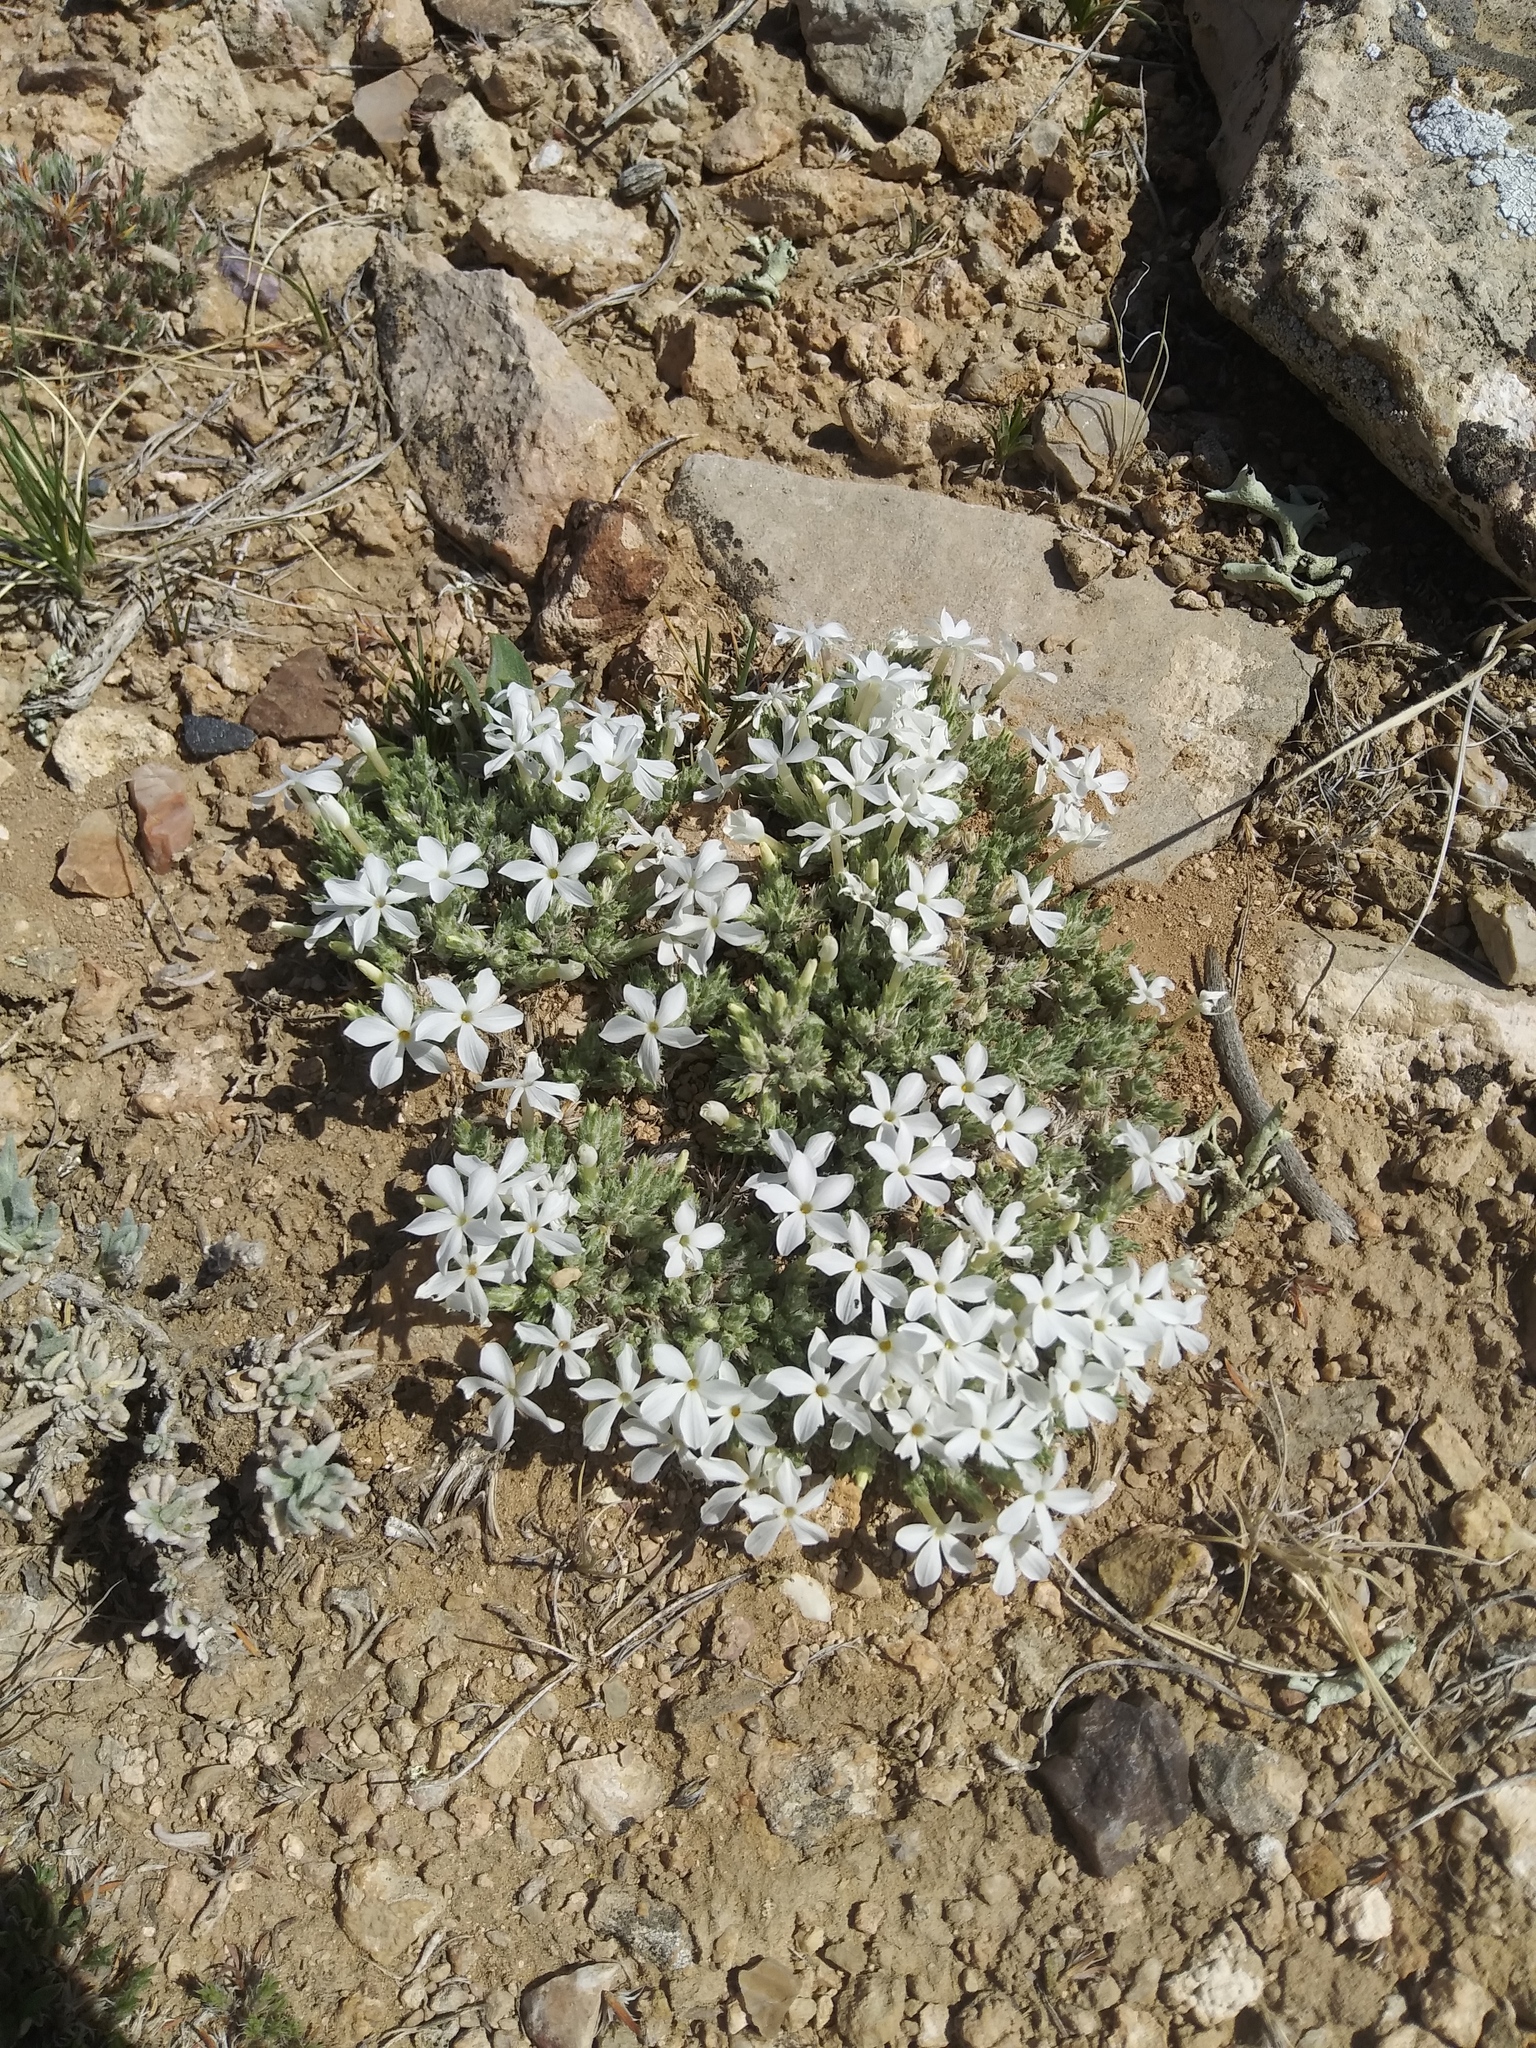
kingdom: Plantae
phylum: Tracheophyta
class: Magnoliopsida
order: Ericales
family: Polemoniaceae
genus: Phlox
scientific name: Phlox hoodii
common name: Moss phlox
